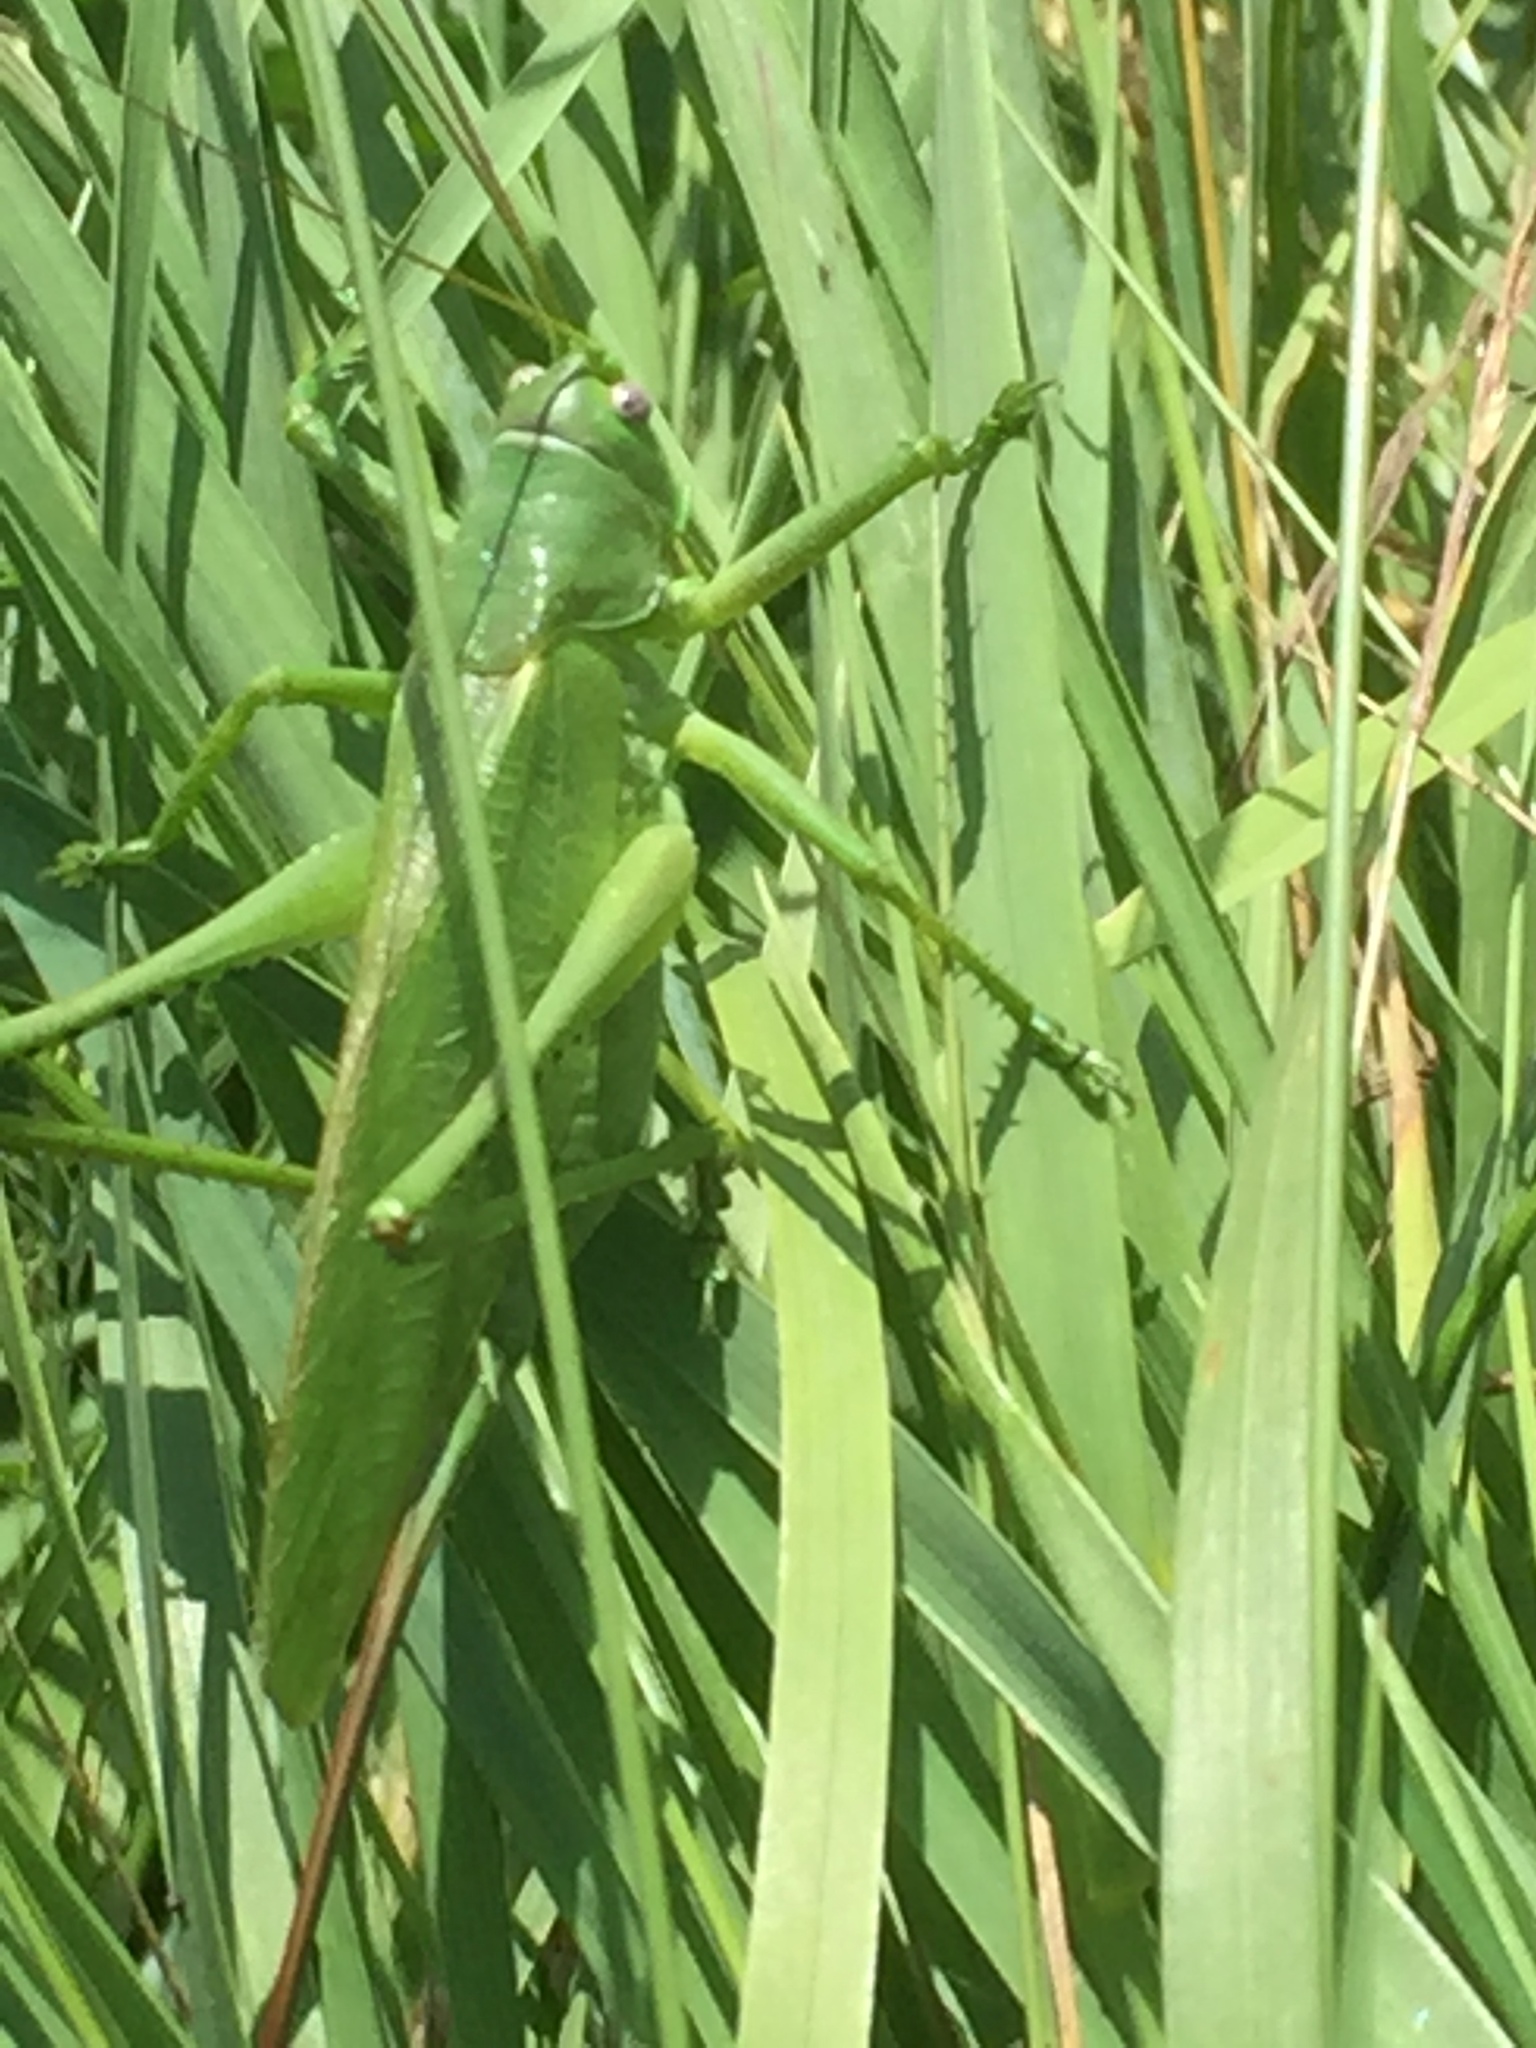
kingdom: Animalia
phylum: Arthropoda
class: Insecta
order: Orthoptera
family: Tettigoniidae
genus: Tettigonia
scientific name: Tettigonia caudata
